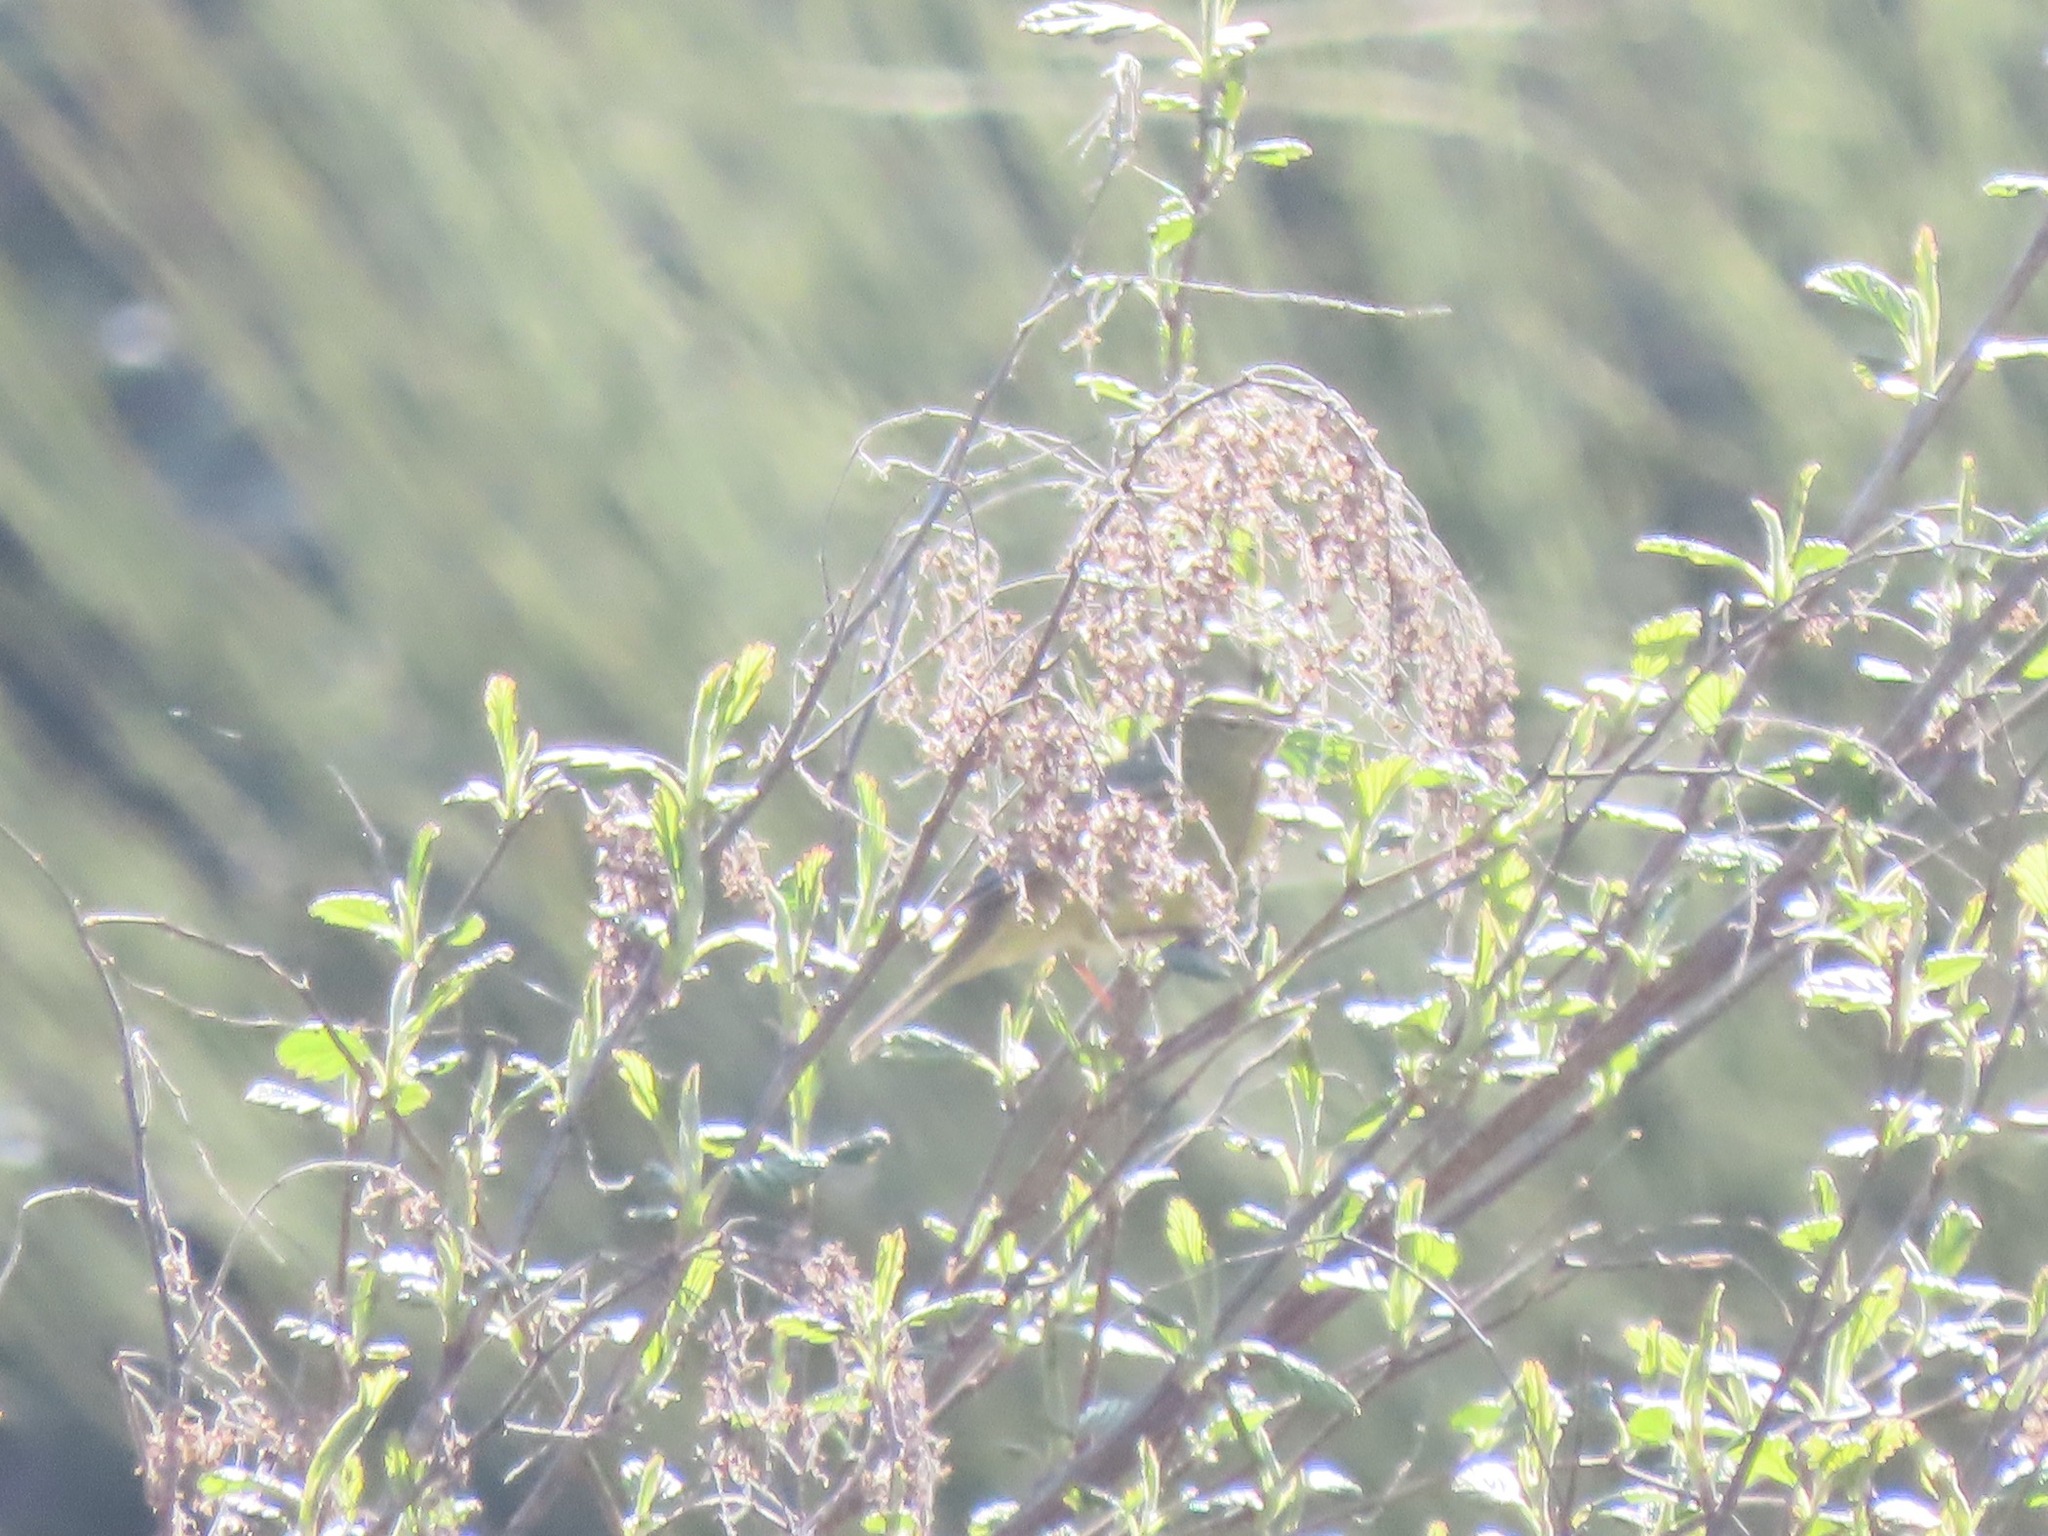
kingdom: Animalia
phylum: Chordata
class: Aves
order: Passeriformes
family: Parulidae
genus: Leiothlypis
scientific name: Leiothlypis celata
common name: Orange-crowned warbler
